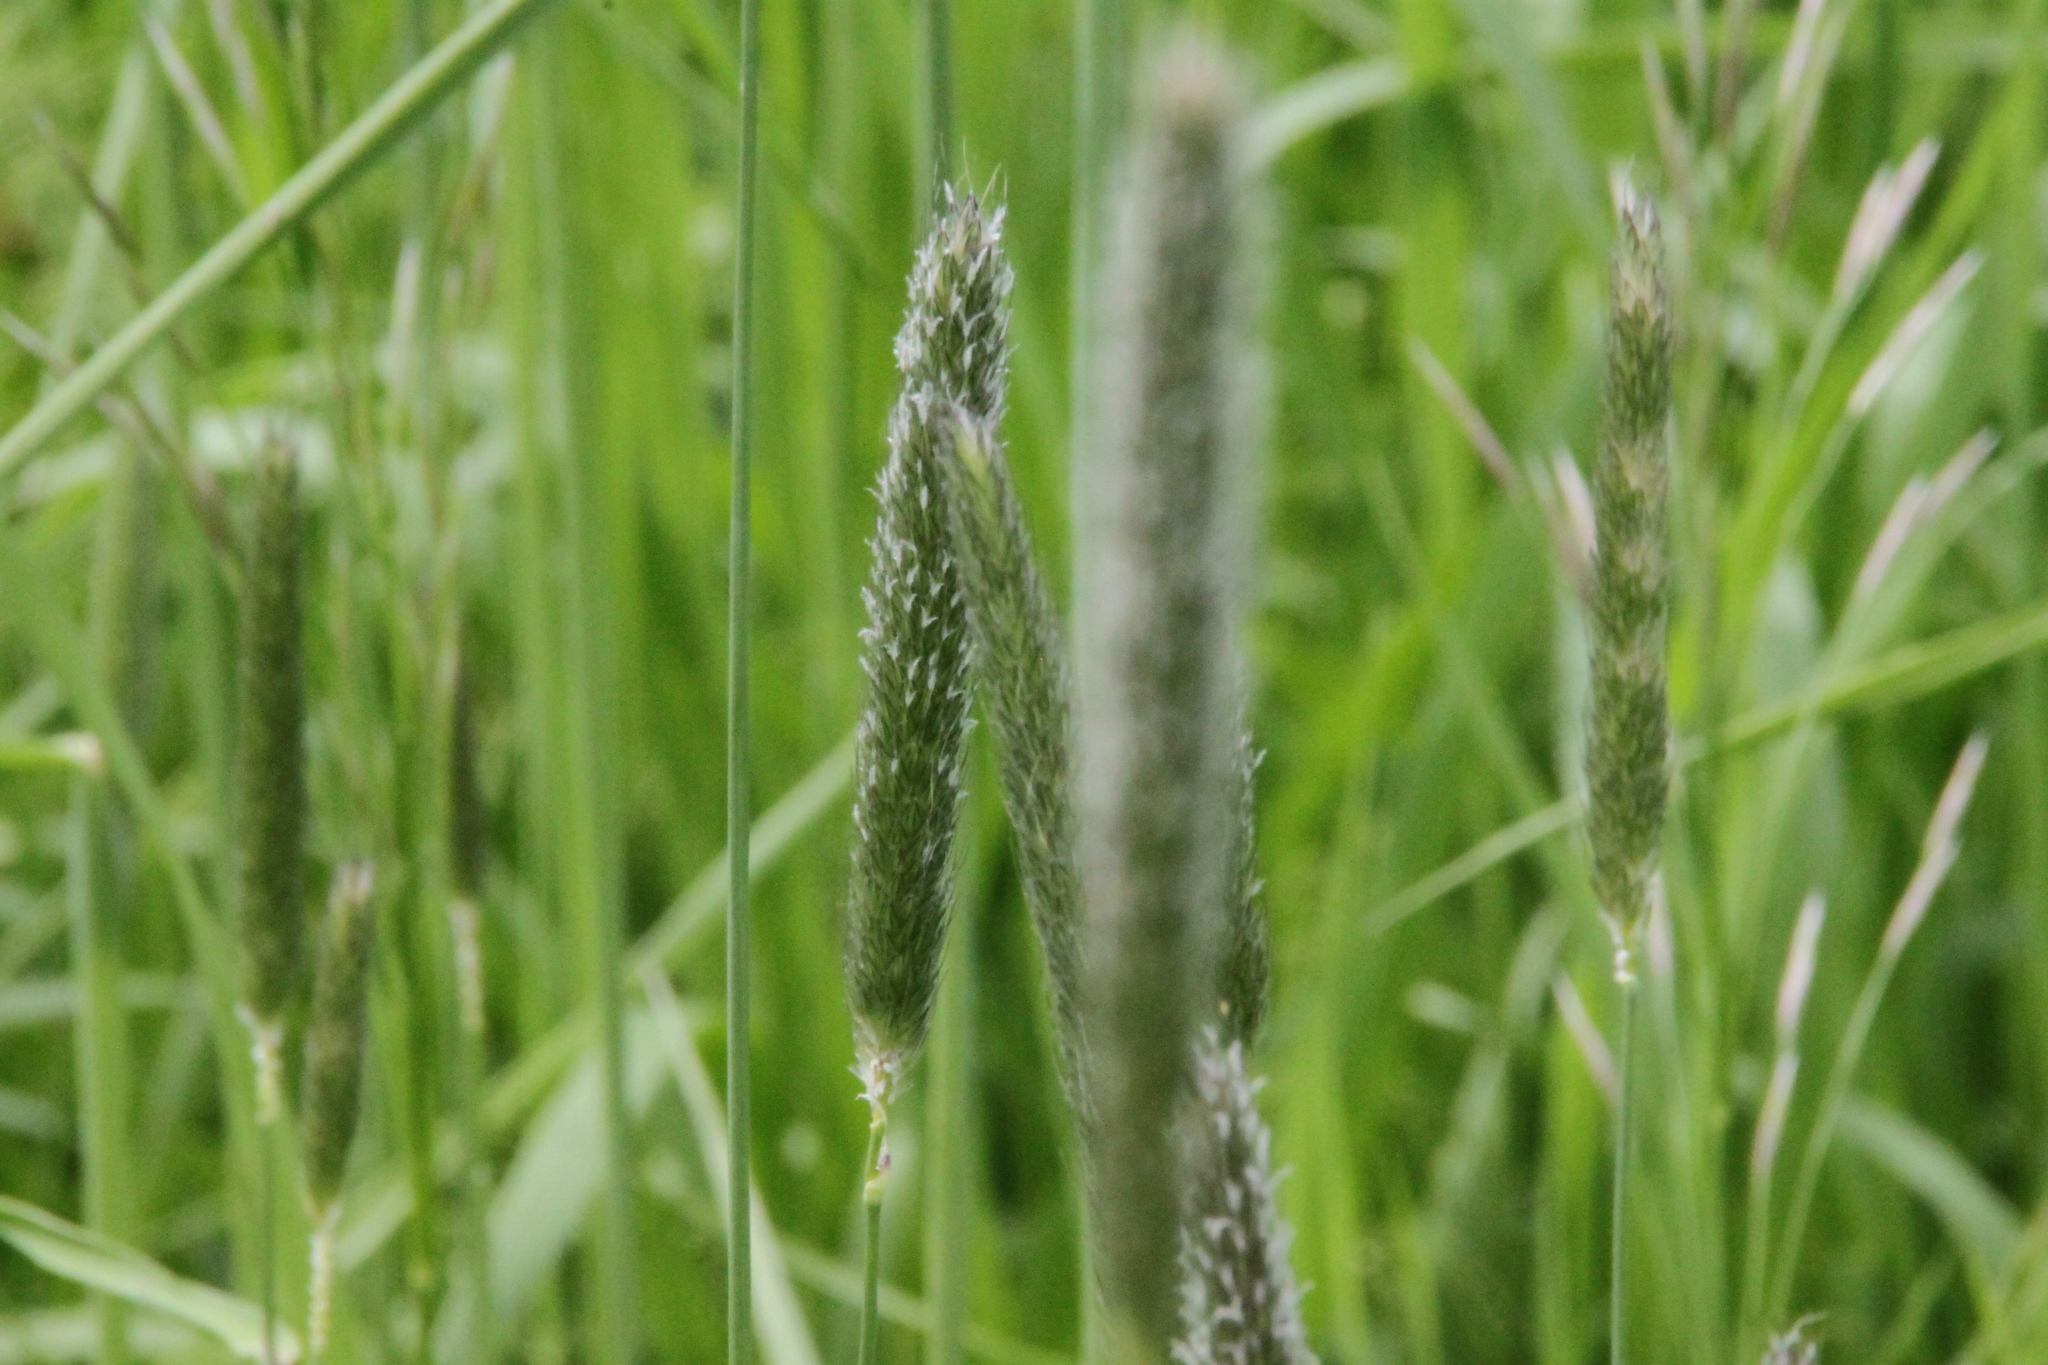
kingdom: Plantae
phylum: Tracheophyta
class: Liliopsida
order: Poales
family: Poaceae
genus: Alopecurus
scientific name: Alopecurus pratensis
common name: Meadow foxtail
